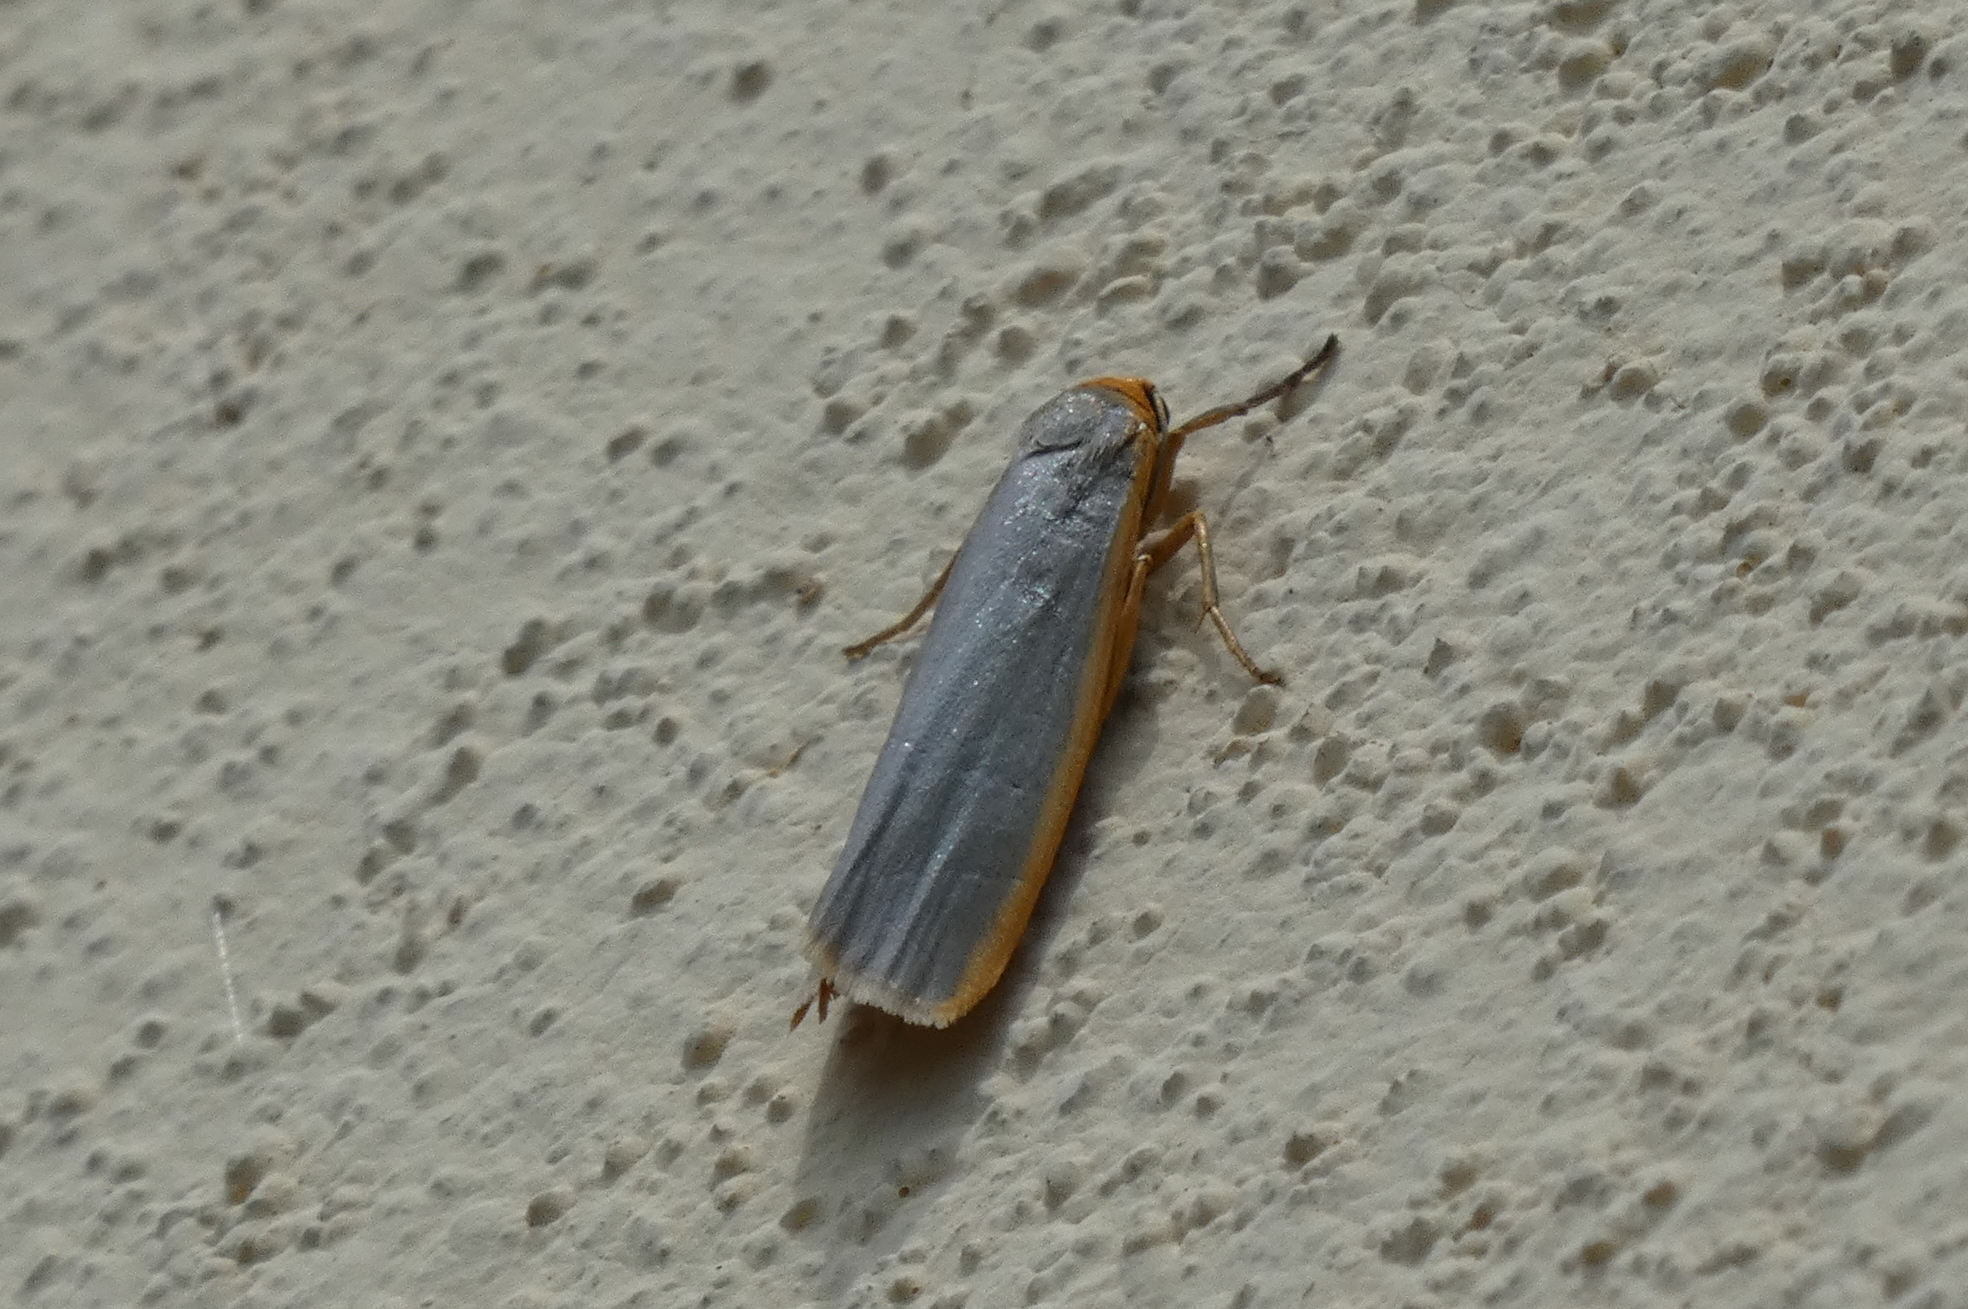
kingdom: Animalia
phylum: Arthropoda
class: Insecta
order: Lepidoptera
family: Erebidae
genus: Manulea
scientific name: Manulea complana
